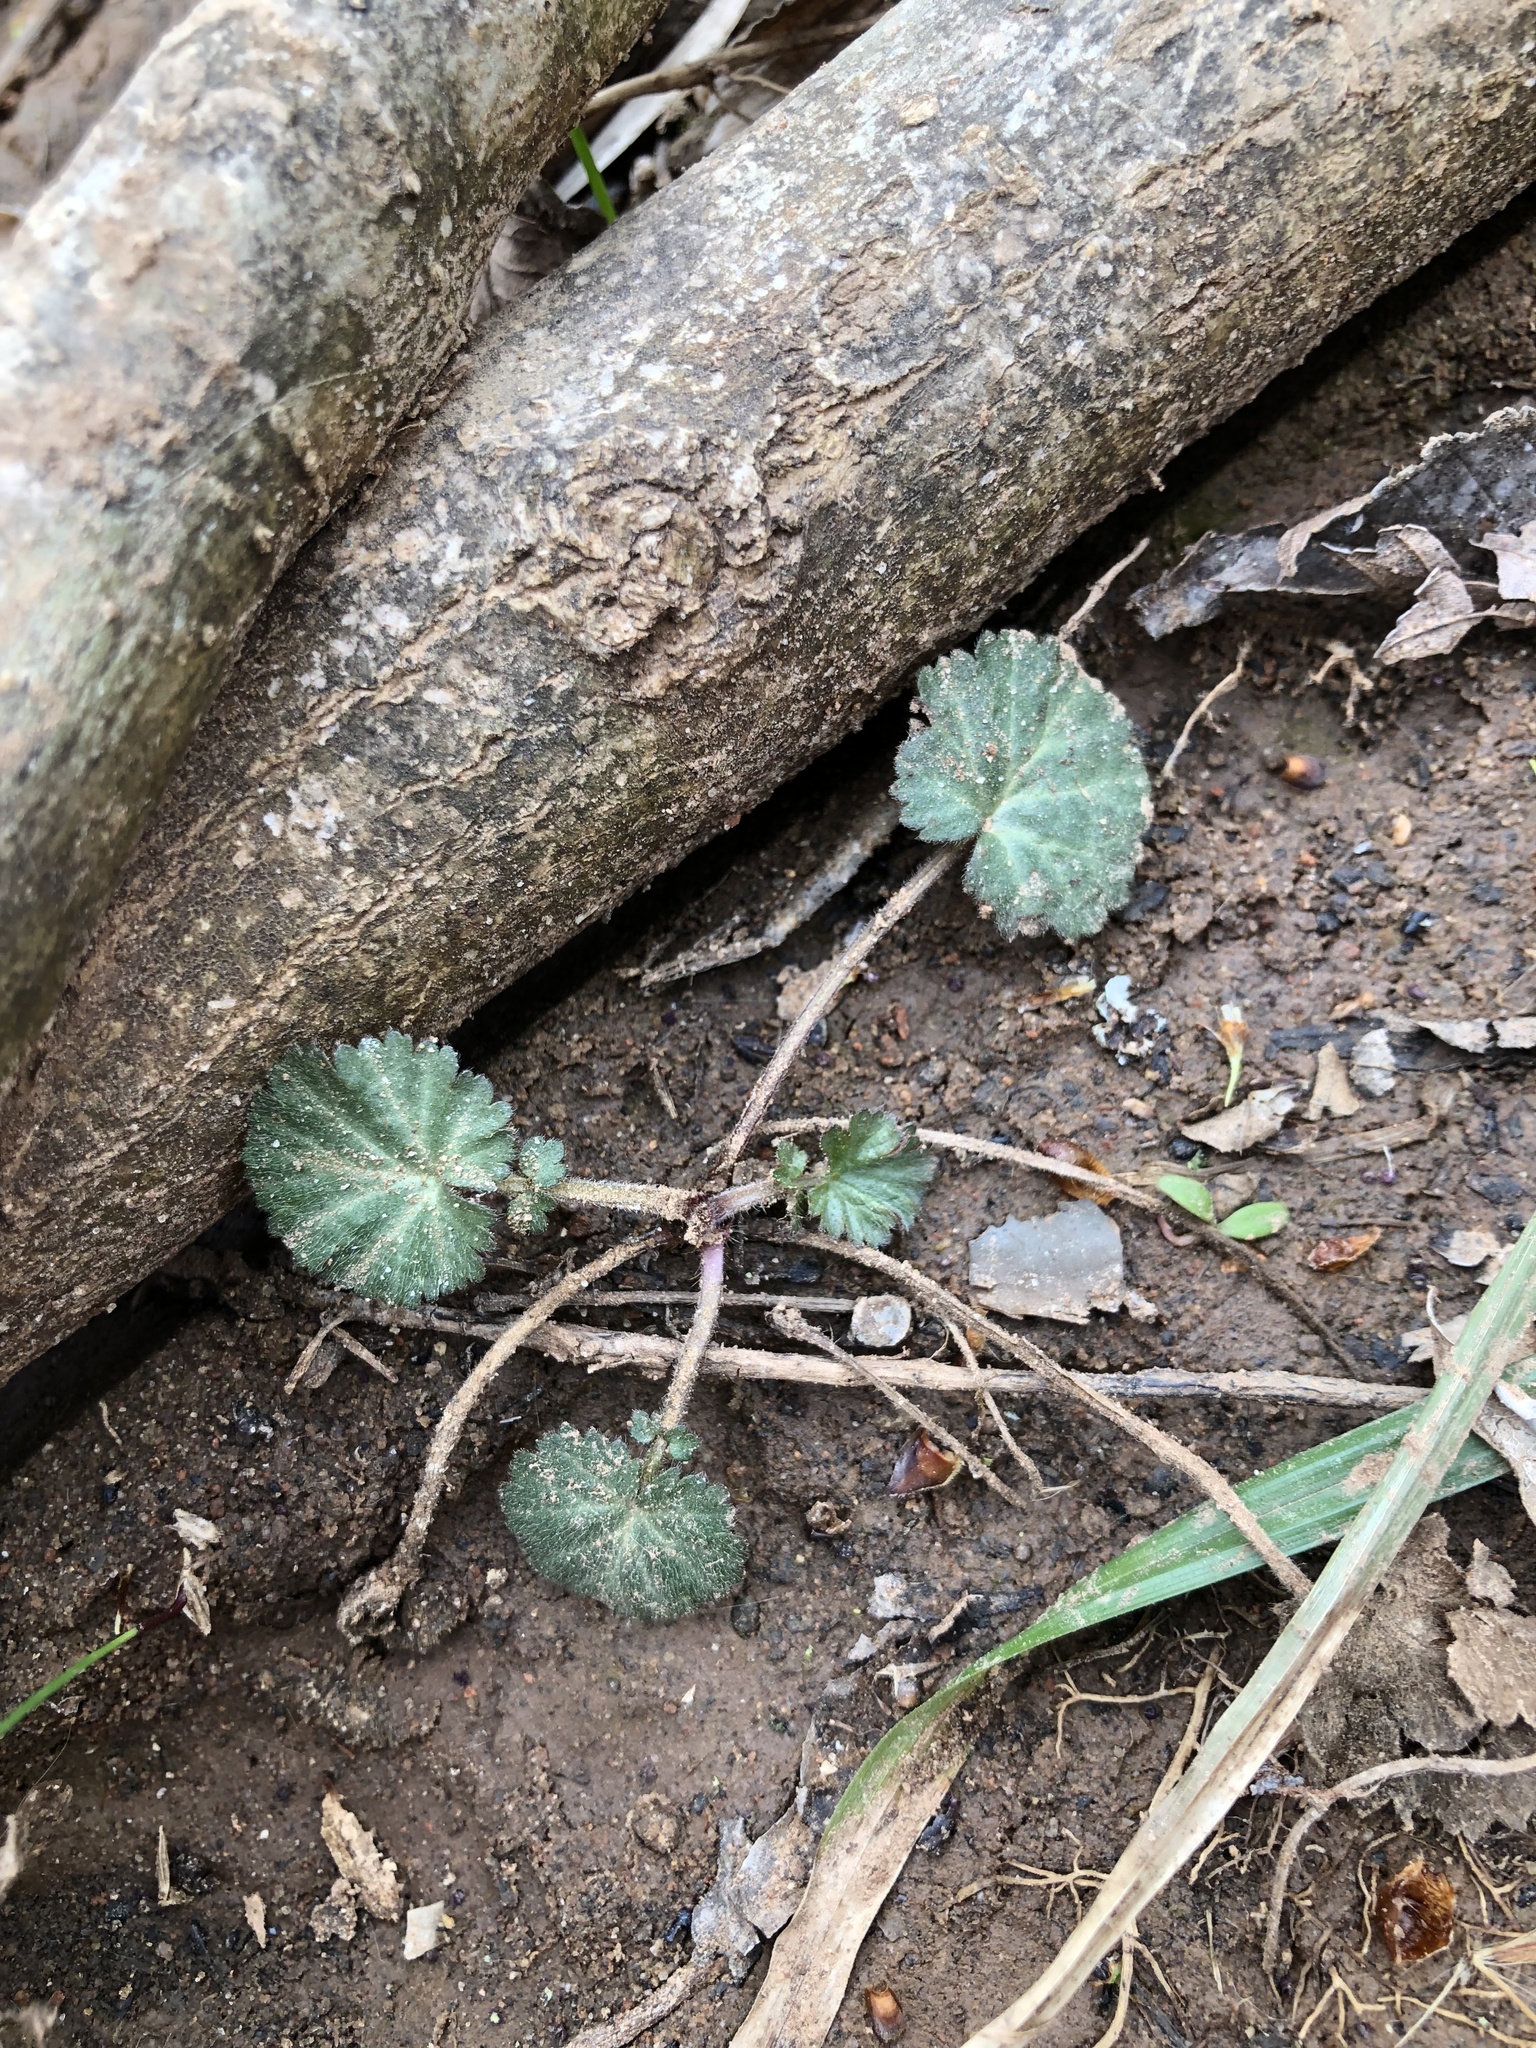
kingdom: Plantae
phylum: Tracheophyta
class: Magnoliopsida
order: Rosales
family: Rosaceae
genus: Geum
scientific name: Geum canadense
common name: White avens
